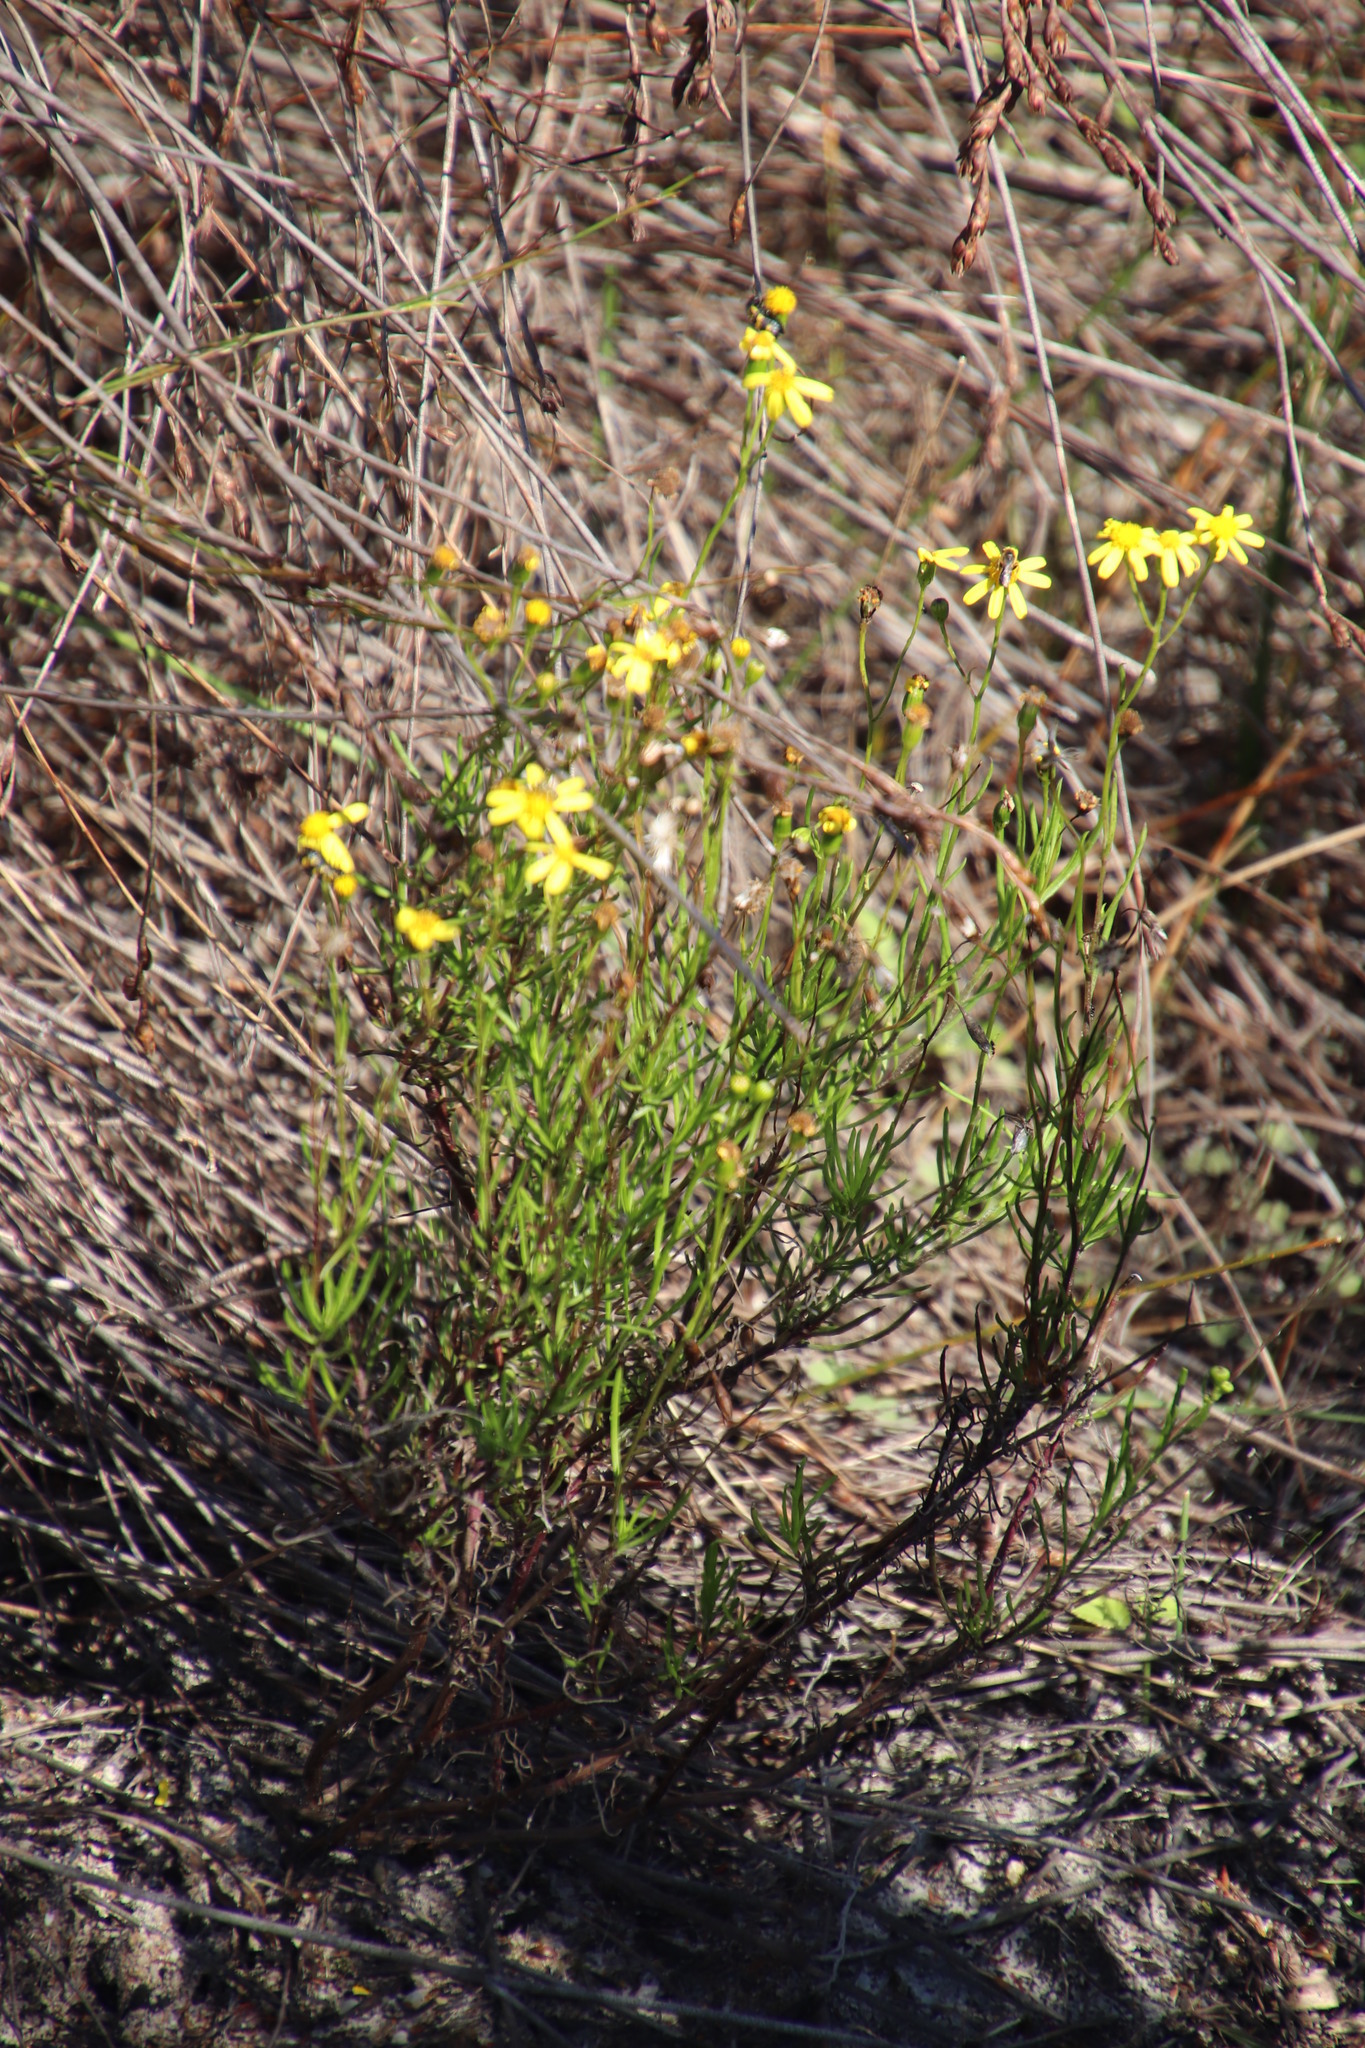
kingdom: Plantae
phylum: Tracheophyta
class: Magnoliopsida
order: Asterales
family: Asteraceae
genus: Senecio
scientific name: Senecio burchellii
